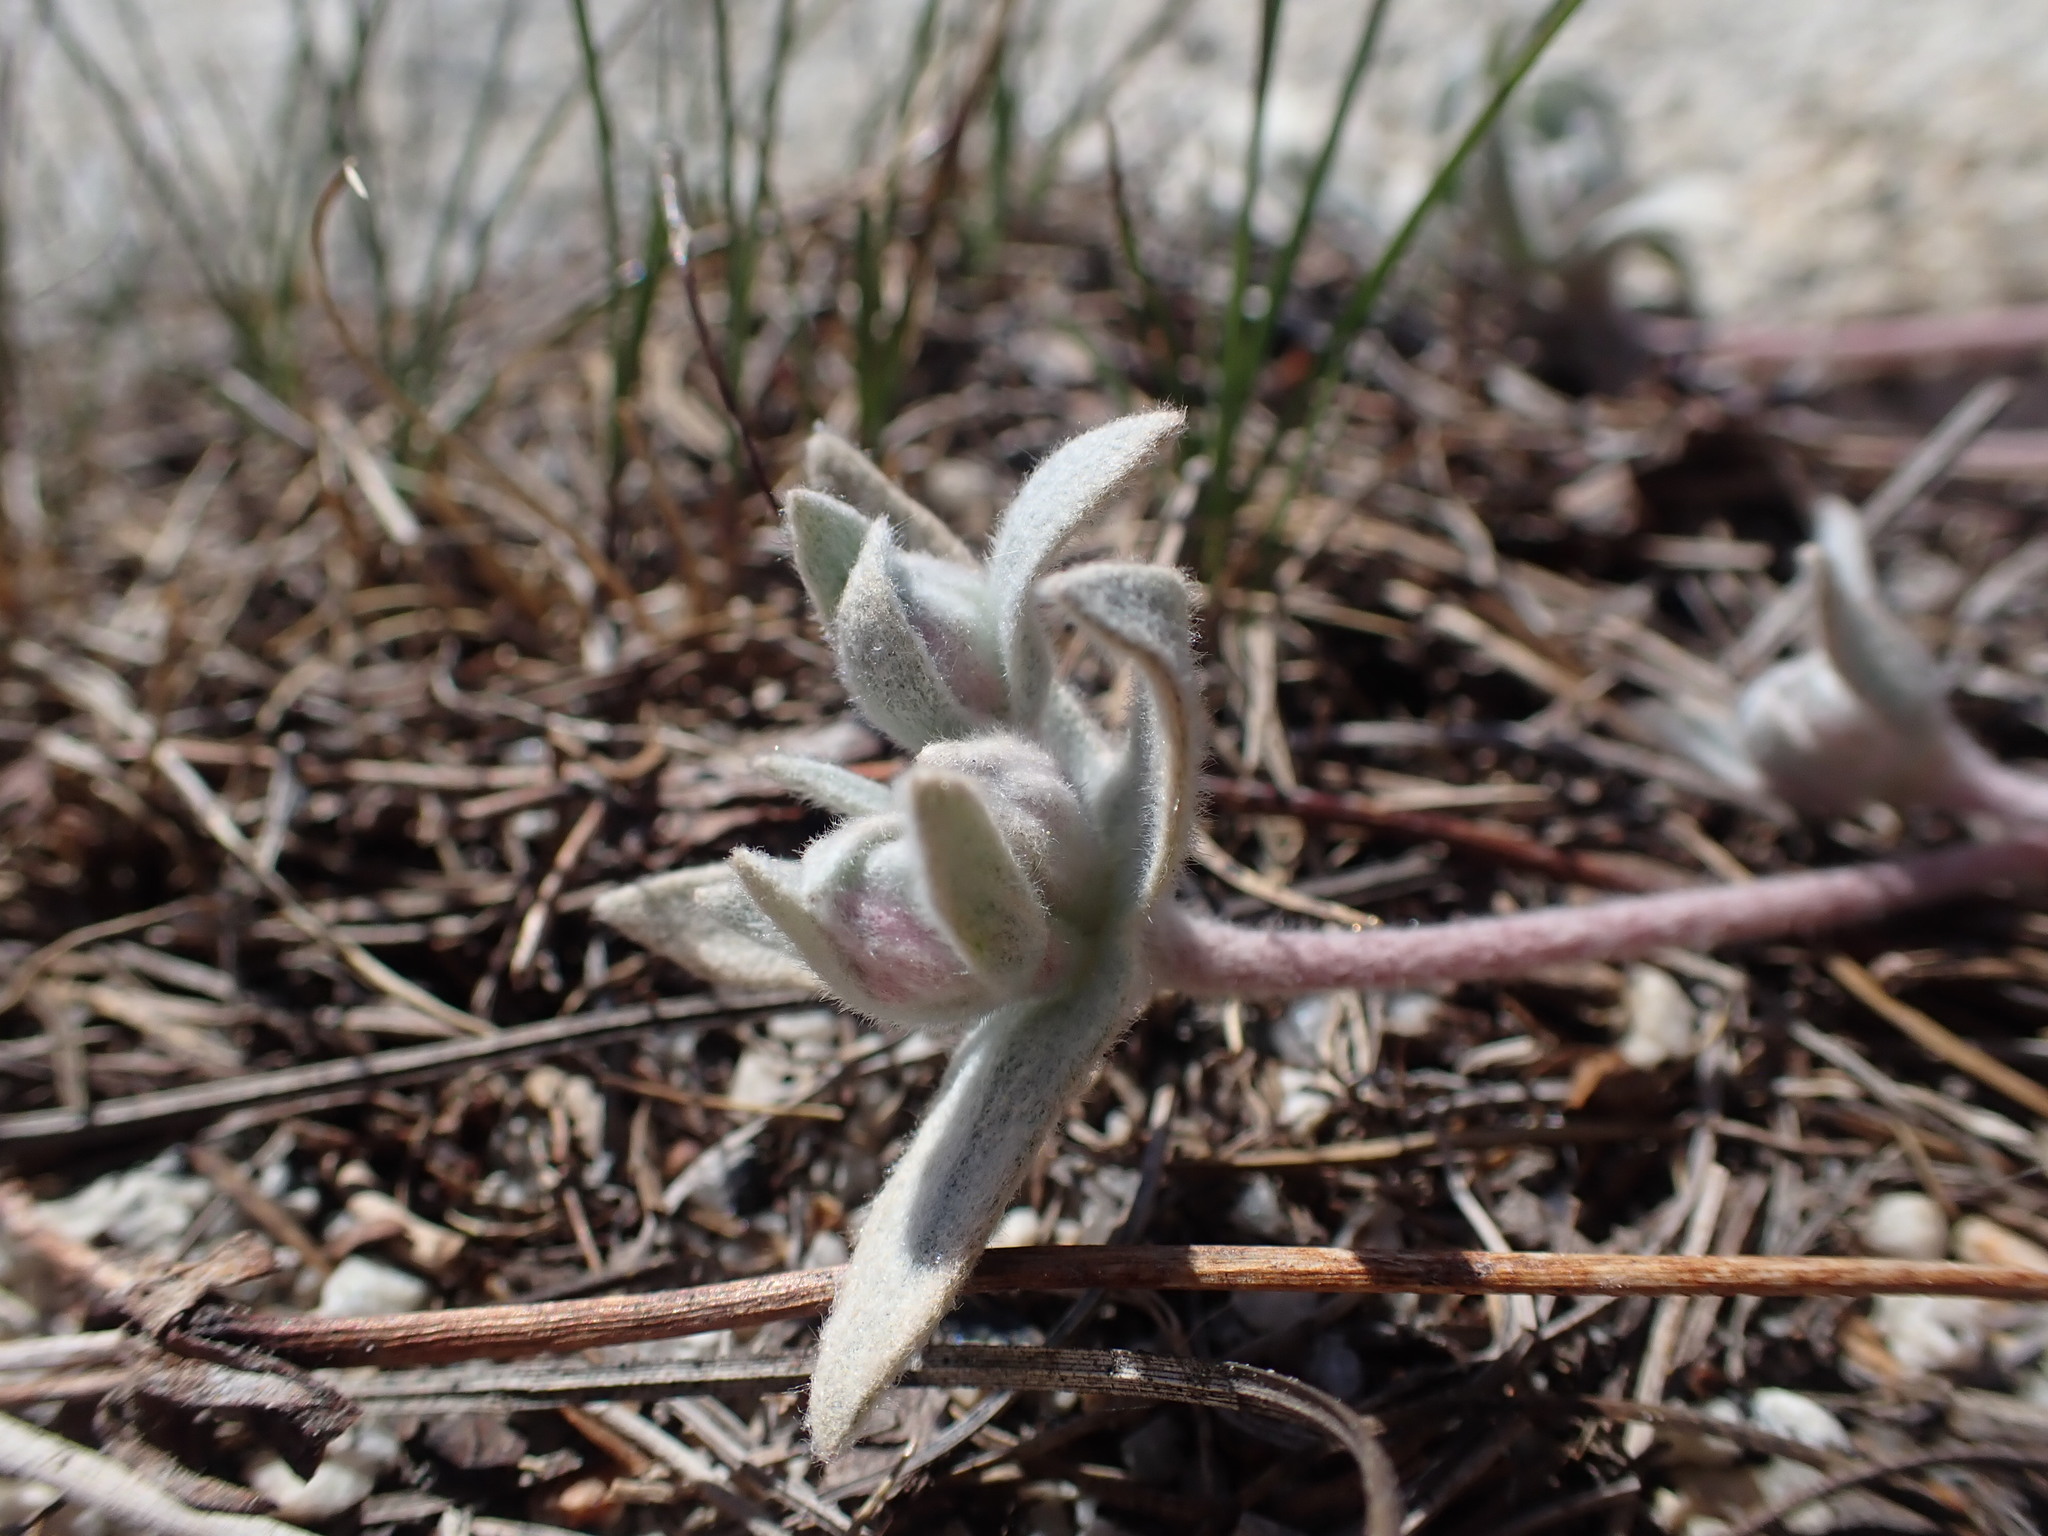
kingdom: Plantae
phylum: Tracheophyta
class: Magnoliopsida
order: Caryophyllales
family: Polygonaceae
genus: Eriogonum
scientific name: Eriogonum lobbii
